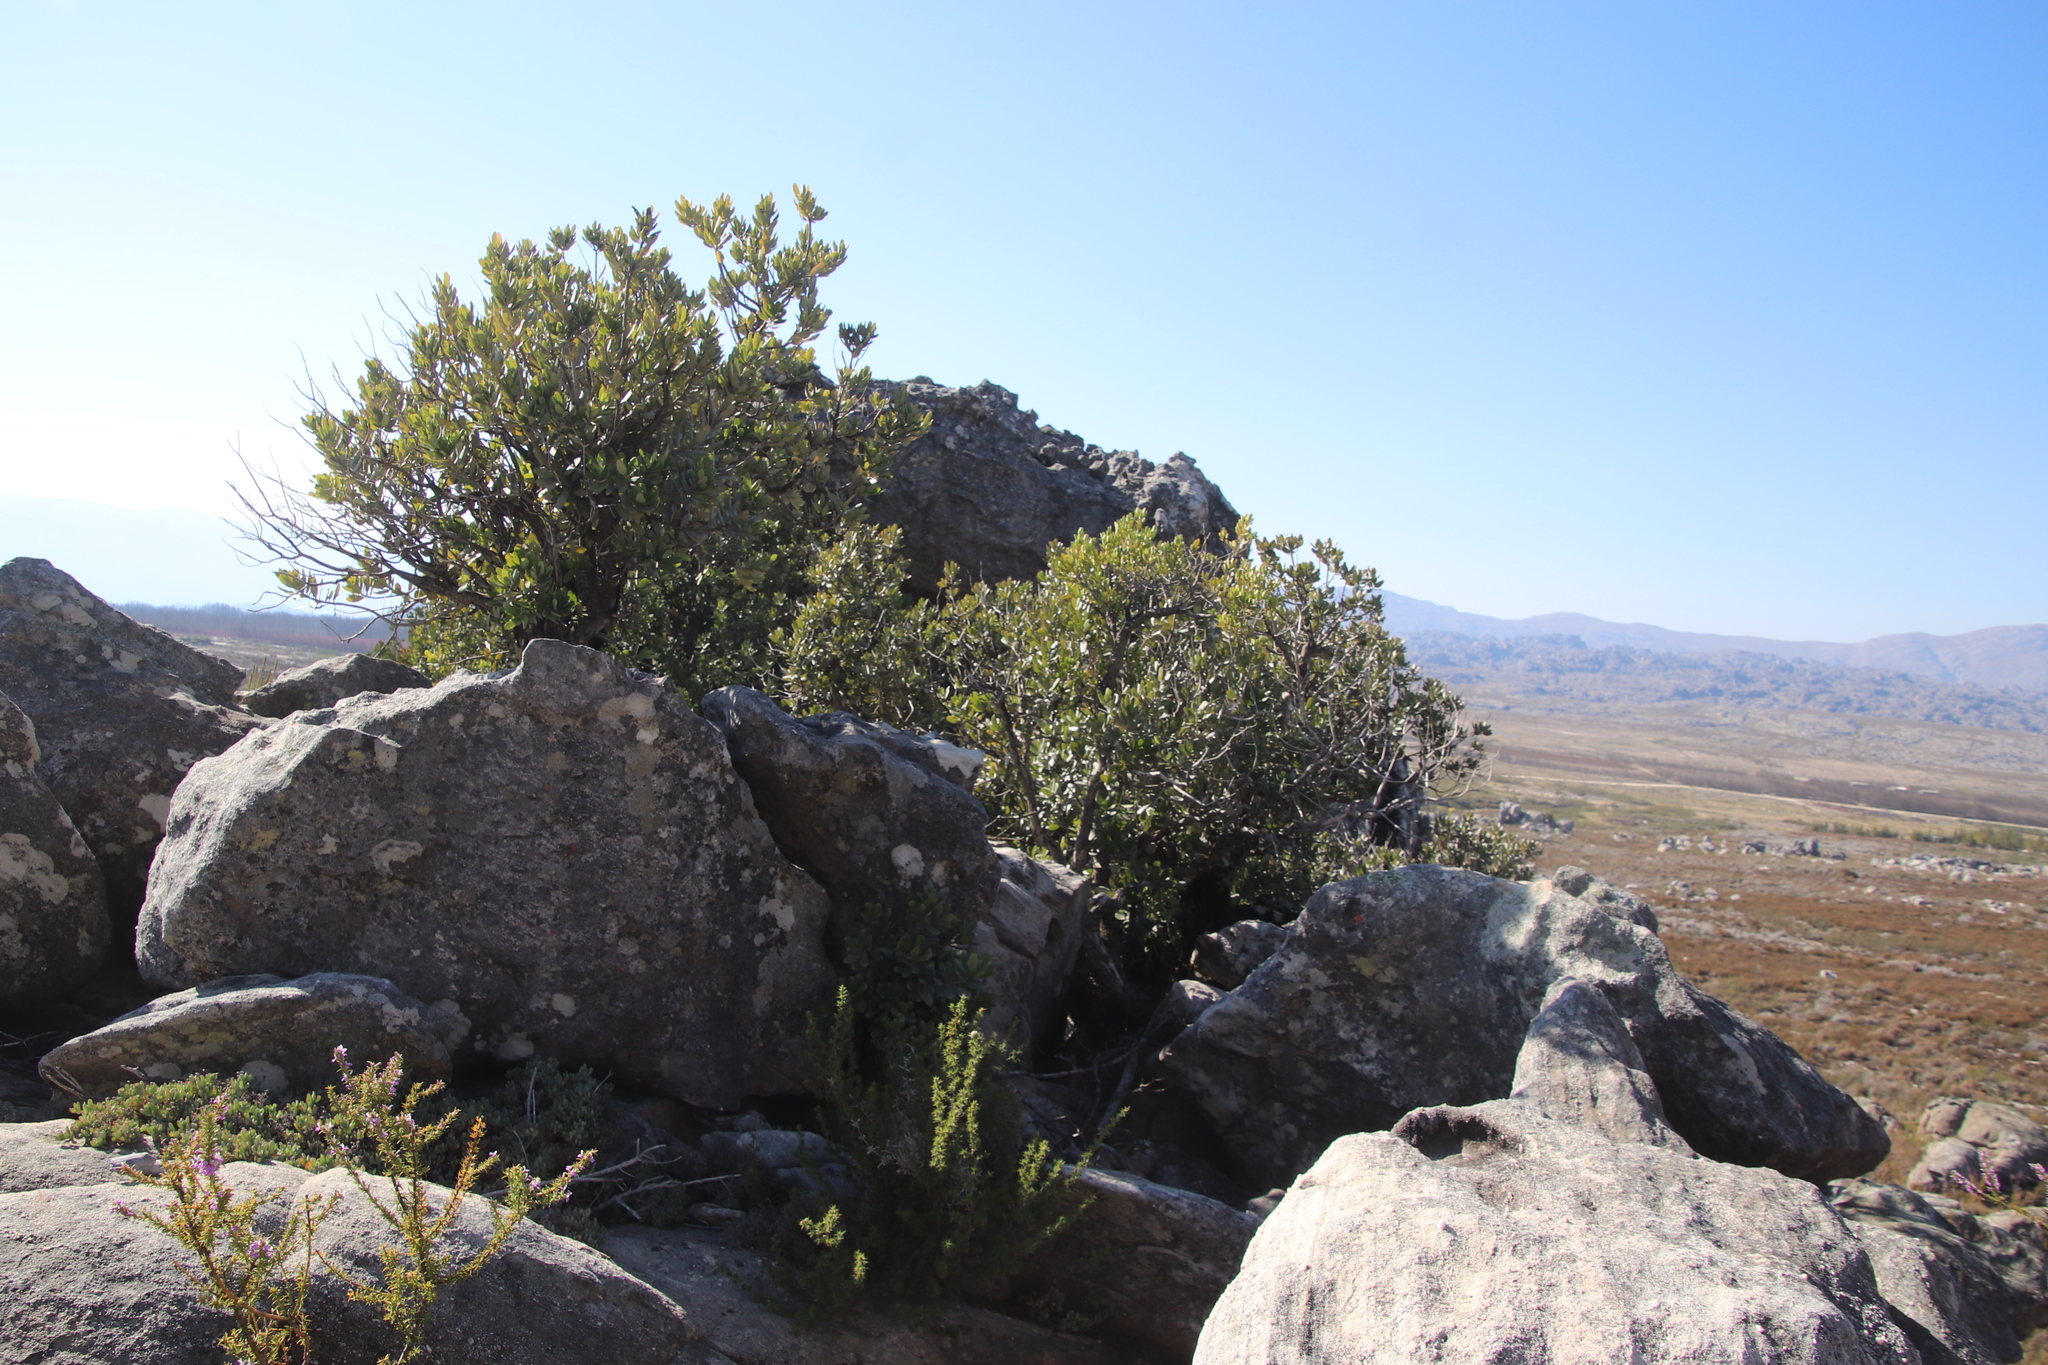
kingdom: Plantae
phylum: Tracheophyta
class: Magnoliopsida
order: Sapindales
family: Anacardiaceae
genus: Heeria
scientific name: Heeria argentea
